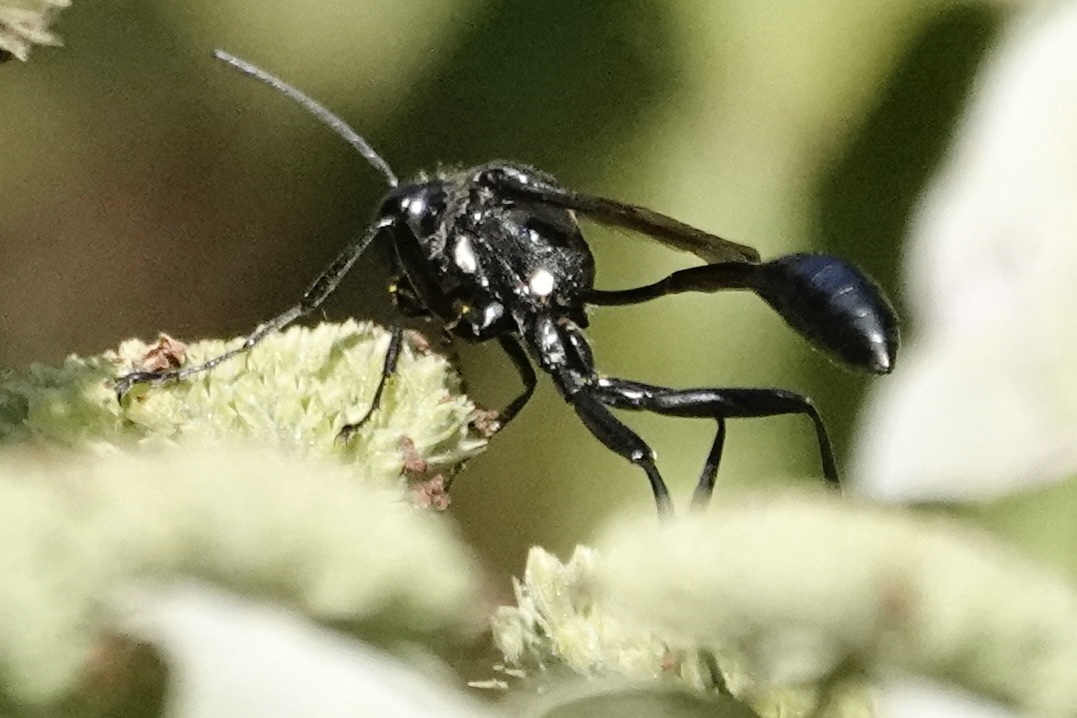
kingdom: Animalia
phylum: Arthropoda
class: Insecta
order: Hymenoptera
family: Sphecidae
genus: Eremnophila
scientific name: Eremnophila aureonotata
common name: Gold-marked thread-waisted wasp
